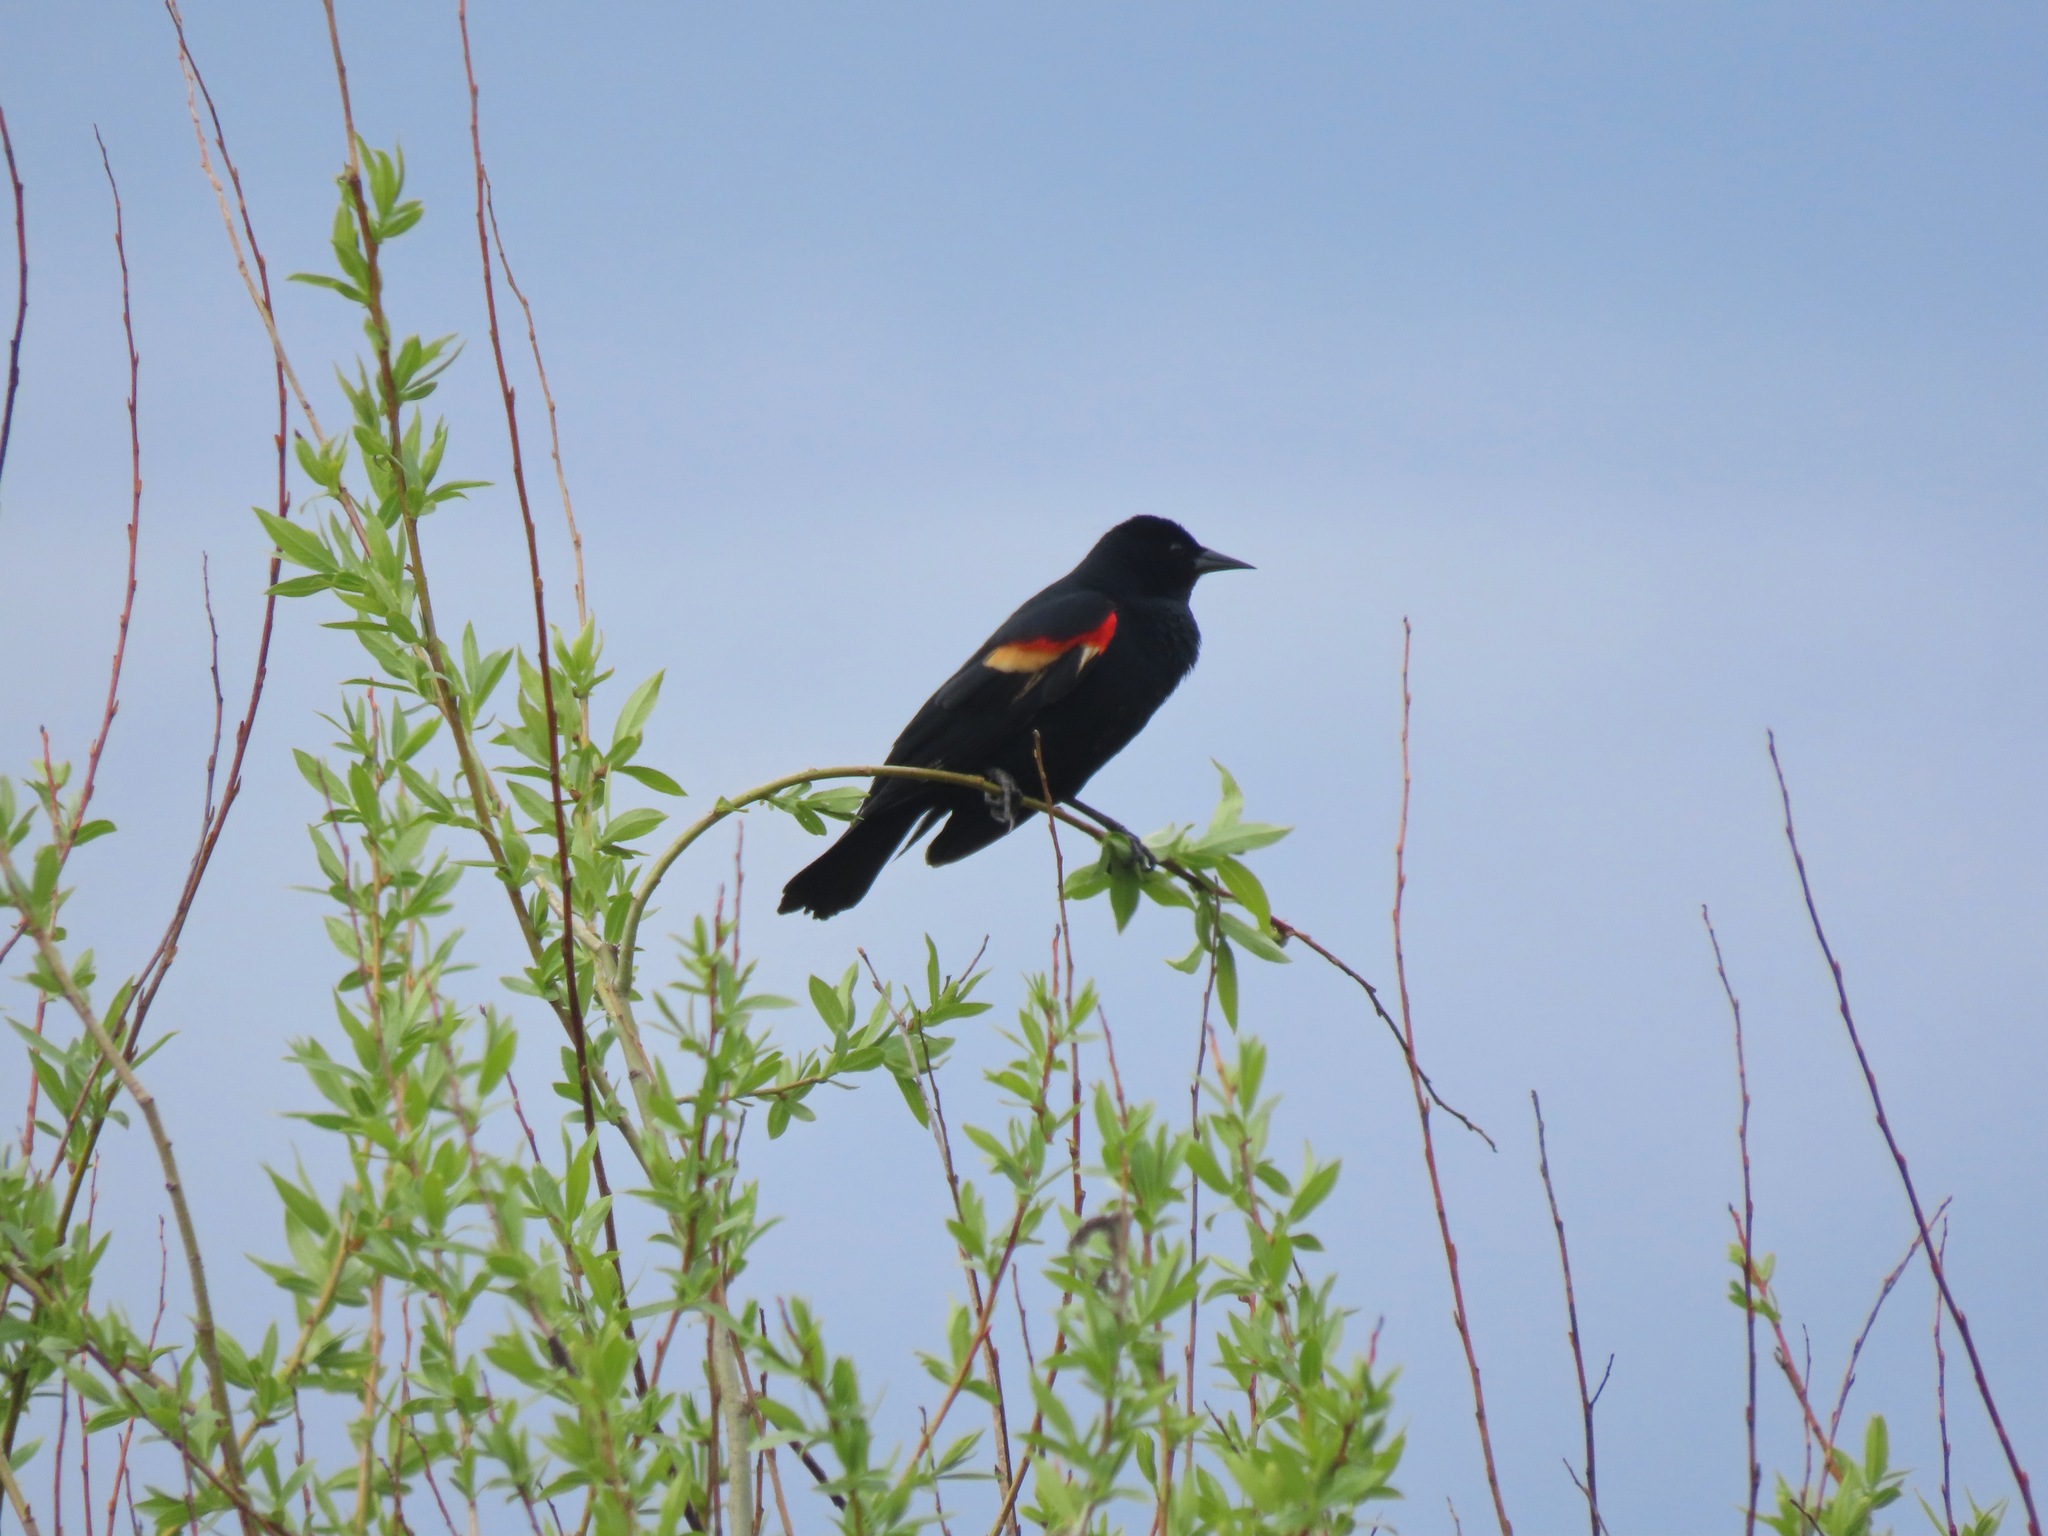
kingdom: Animalia
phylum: Chordata
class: Aves
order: Passeriformes
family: Icteridae
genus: Agelaius
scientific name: Agelaius phoeniceus
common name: Red-winged blackbird
